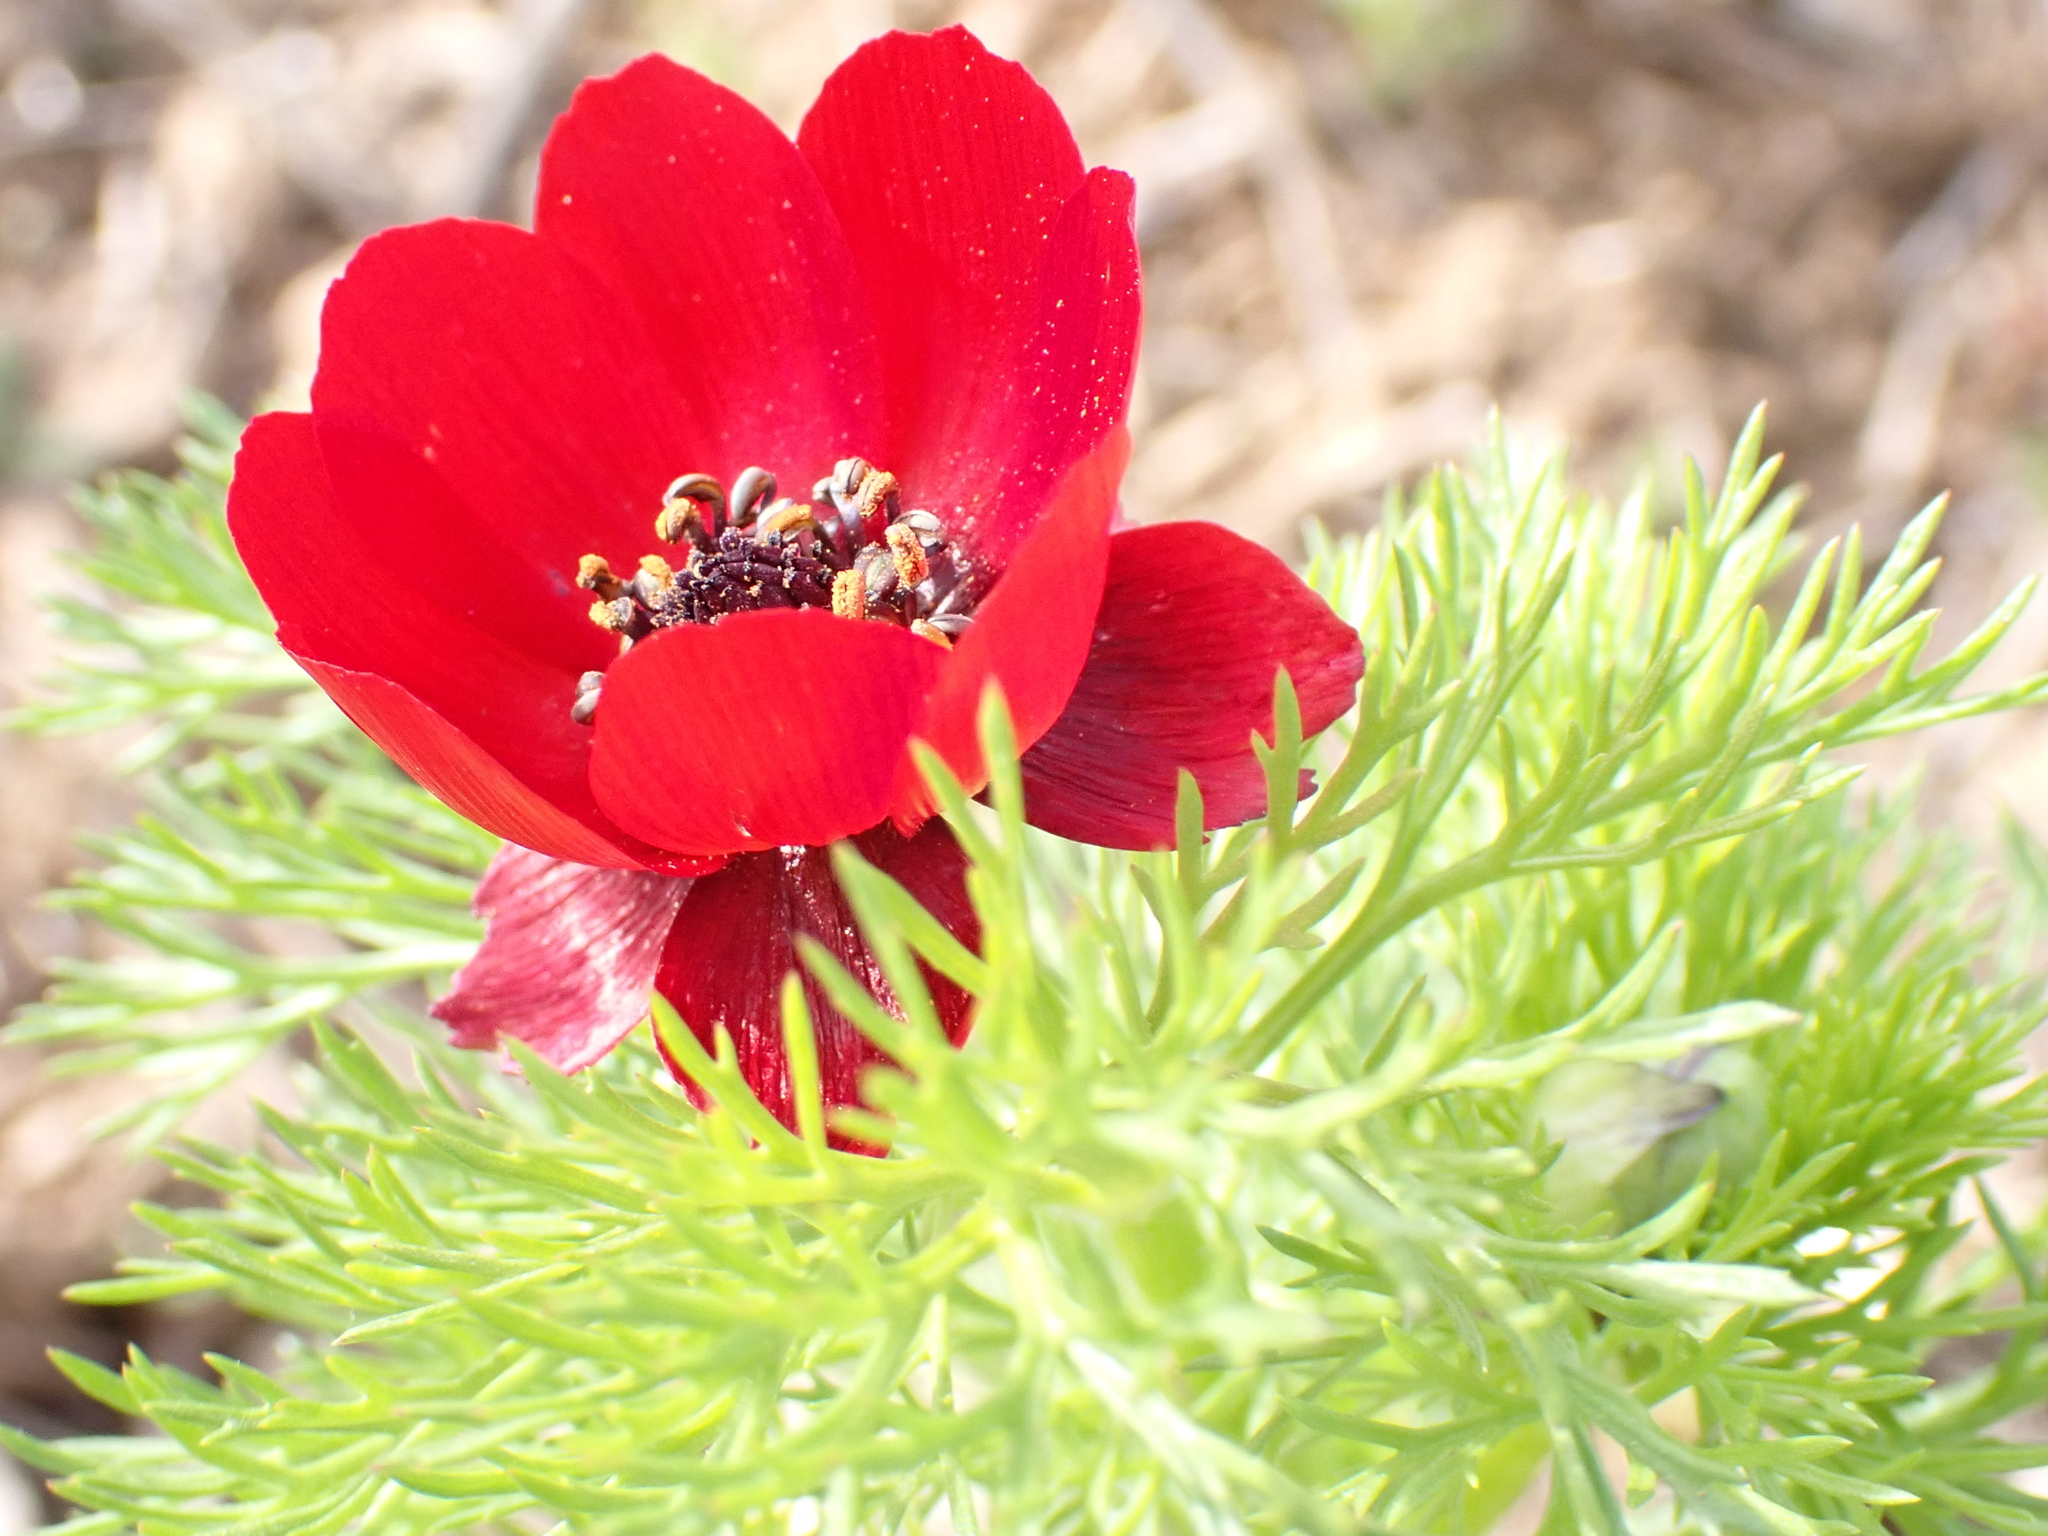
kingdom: Plantae
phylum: Tracheophyta
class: Magnoliopsida
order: Ranunculales
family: Ranunculaceae
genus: Adonis
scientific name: Adonis annua
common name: Pheasant's-eye
